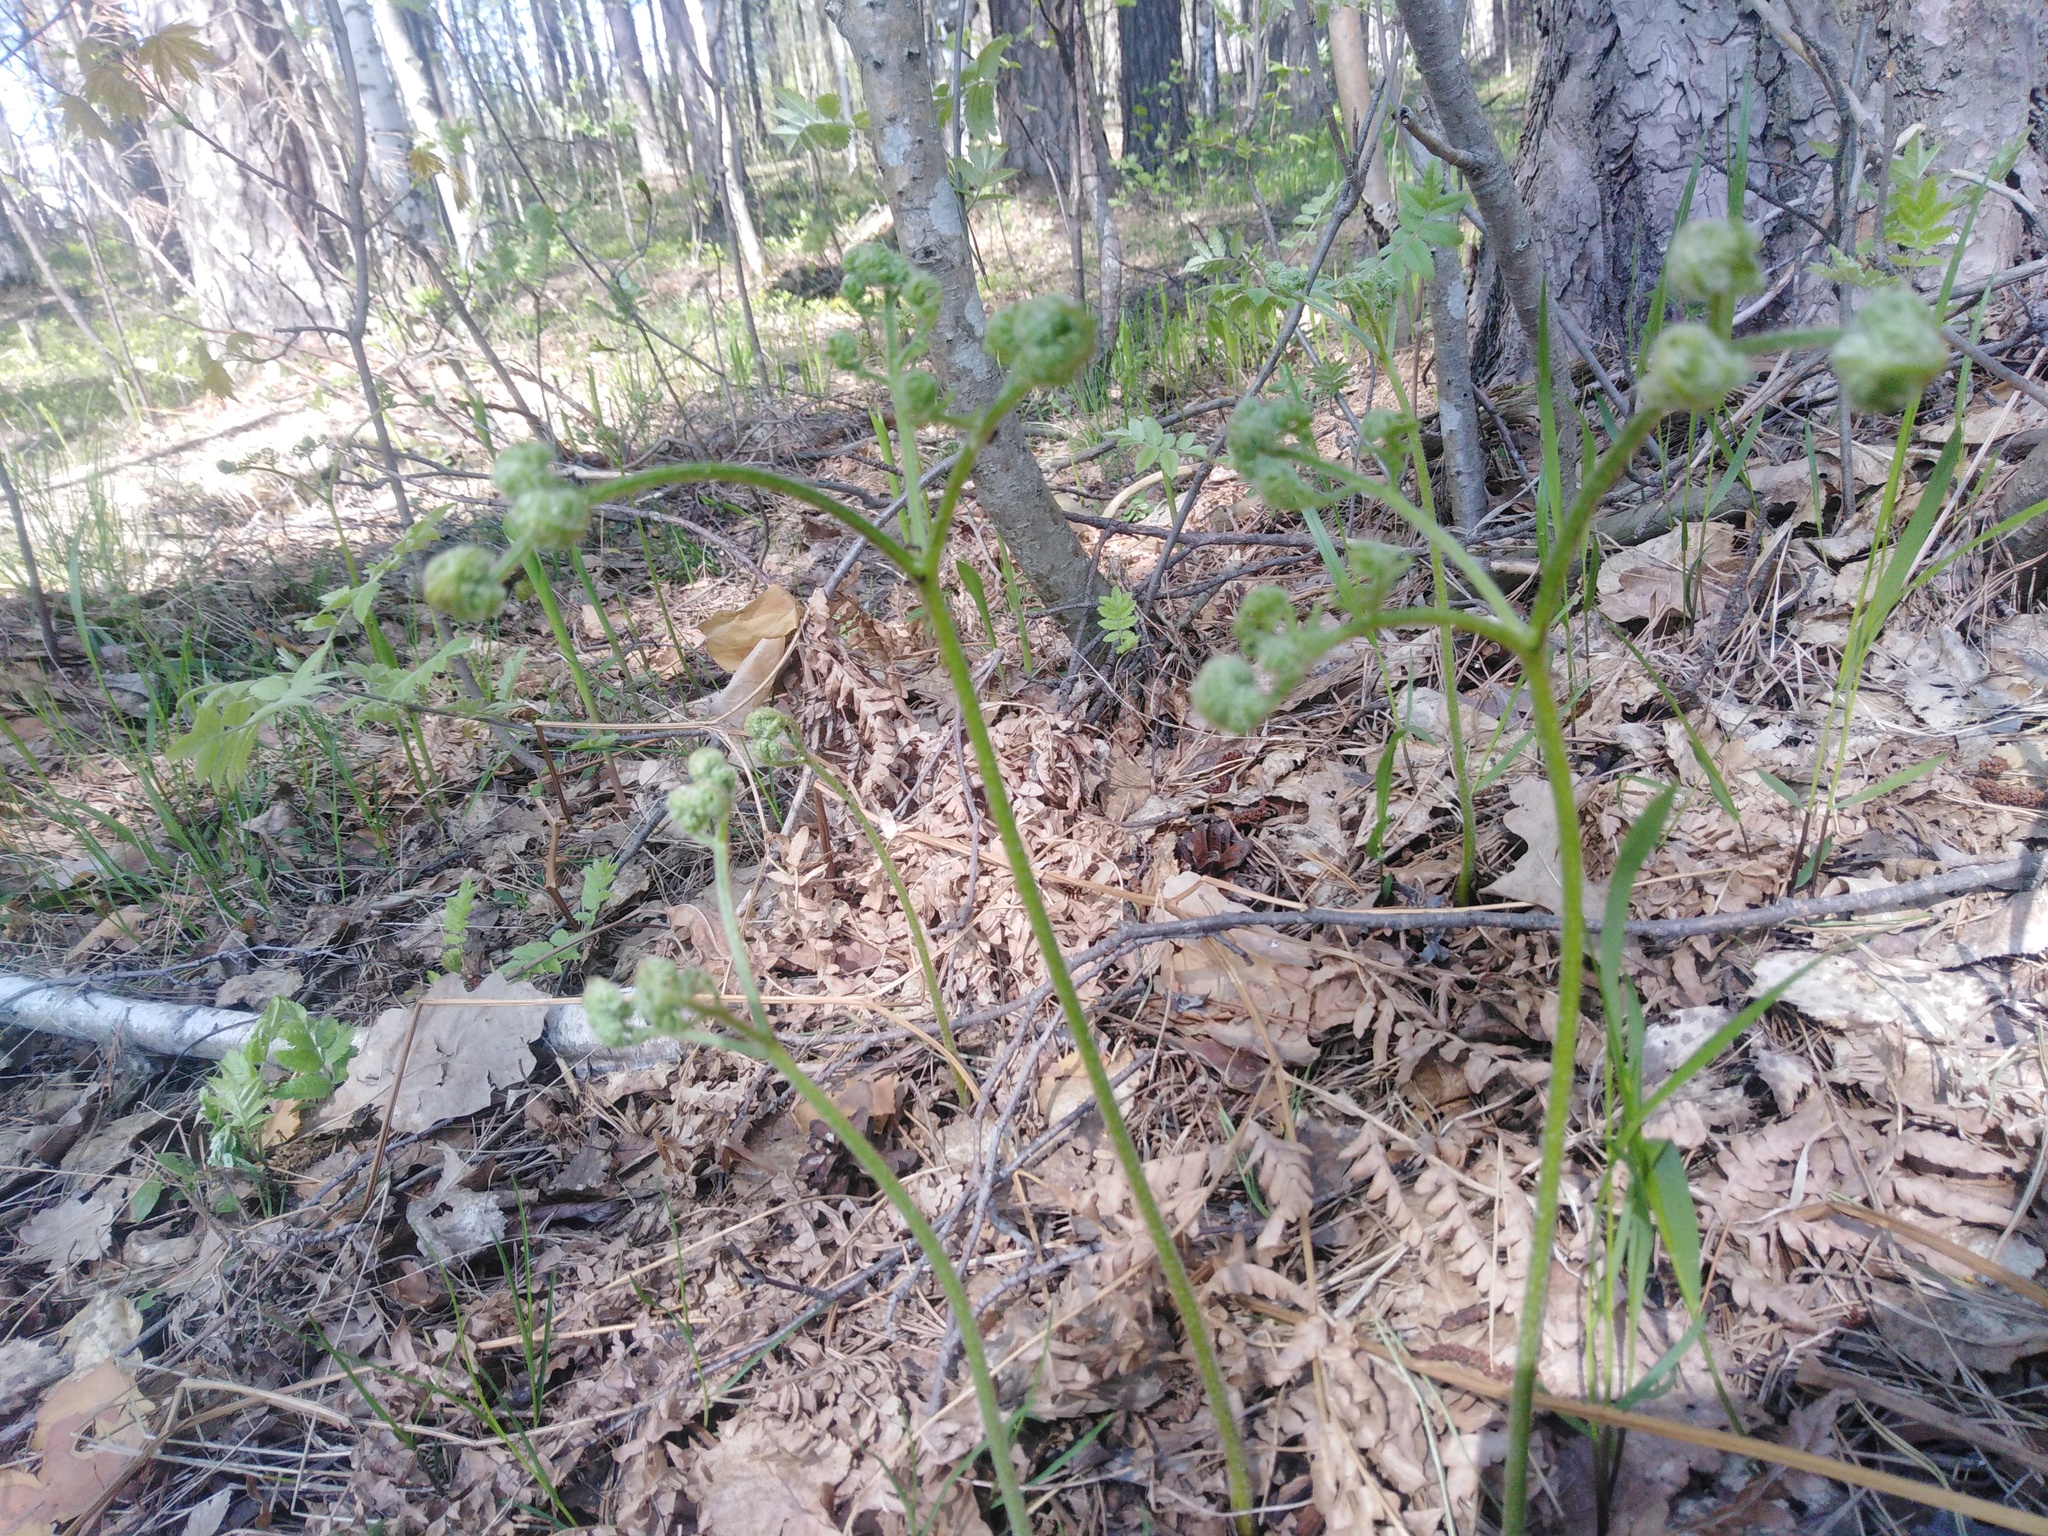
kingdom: Plantae
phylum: Tracheophyta
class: Polypodiopsida
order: Polypodiales
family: Dennstaedtiaceae
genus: Pteridium
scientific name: Pteridium aquilinum
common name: Bracken
